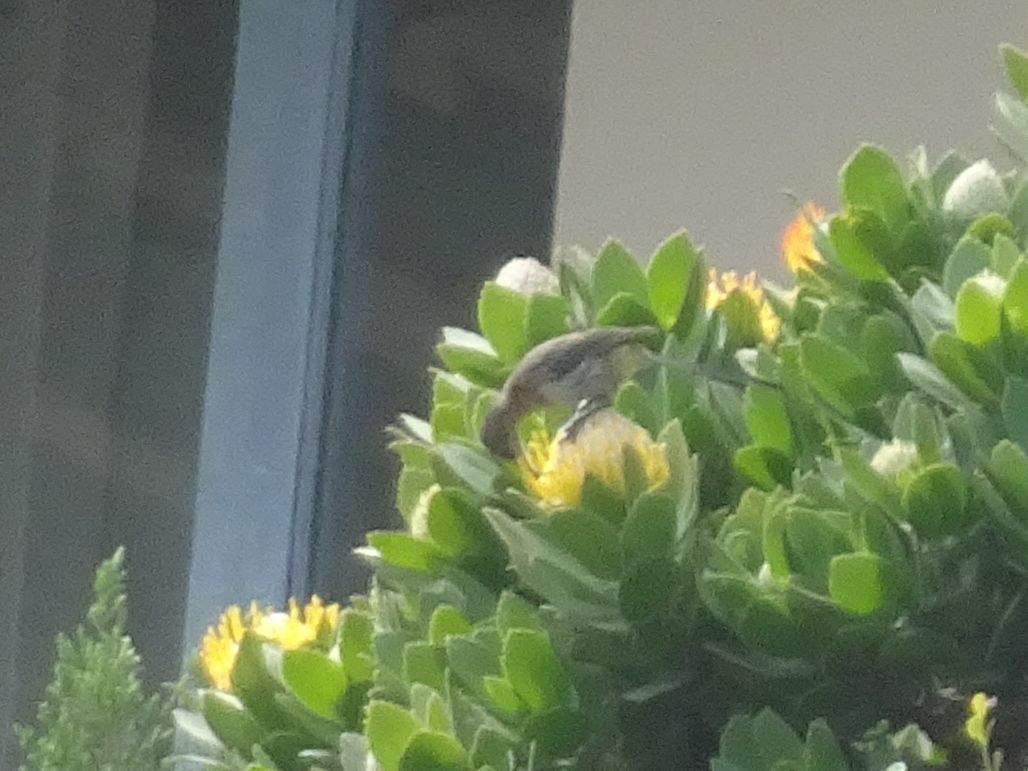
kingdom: Animalia
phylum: Chordata
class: Aves
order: Passeriformes
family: Promeropidae
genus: Promerops
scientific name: Promerops cafer
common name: Cape sugarbird
